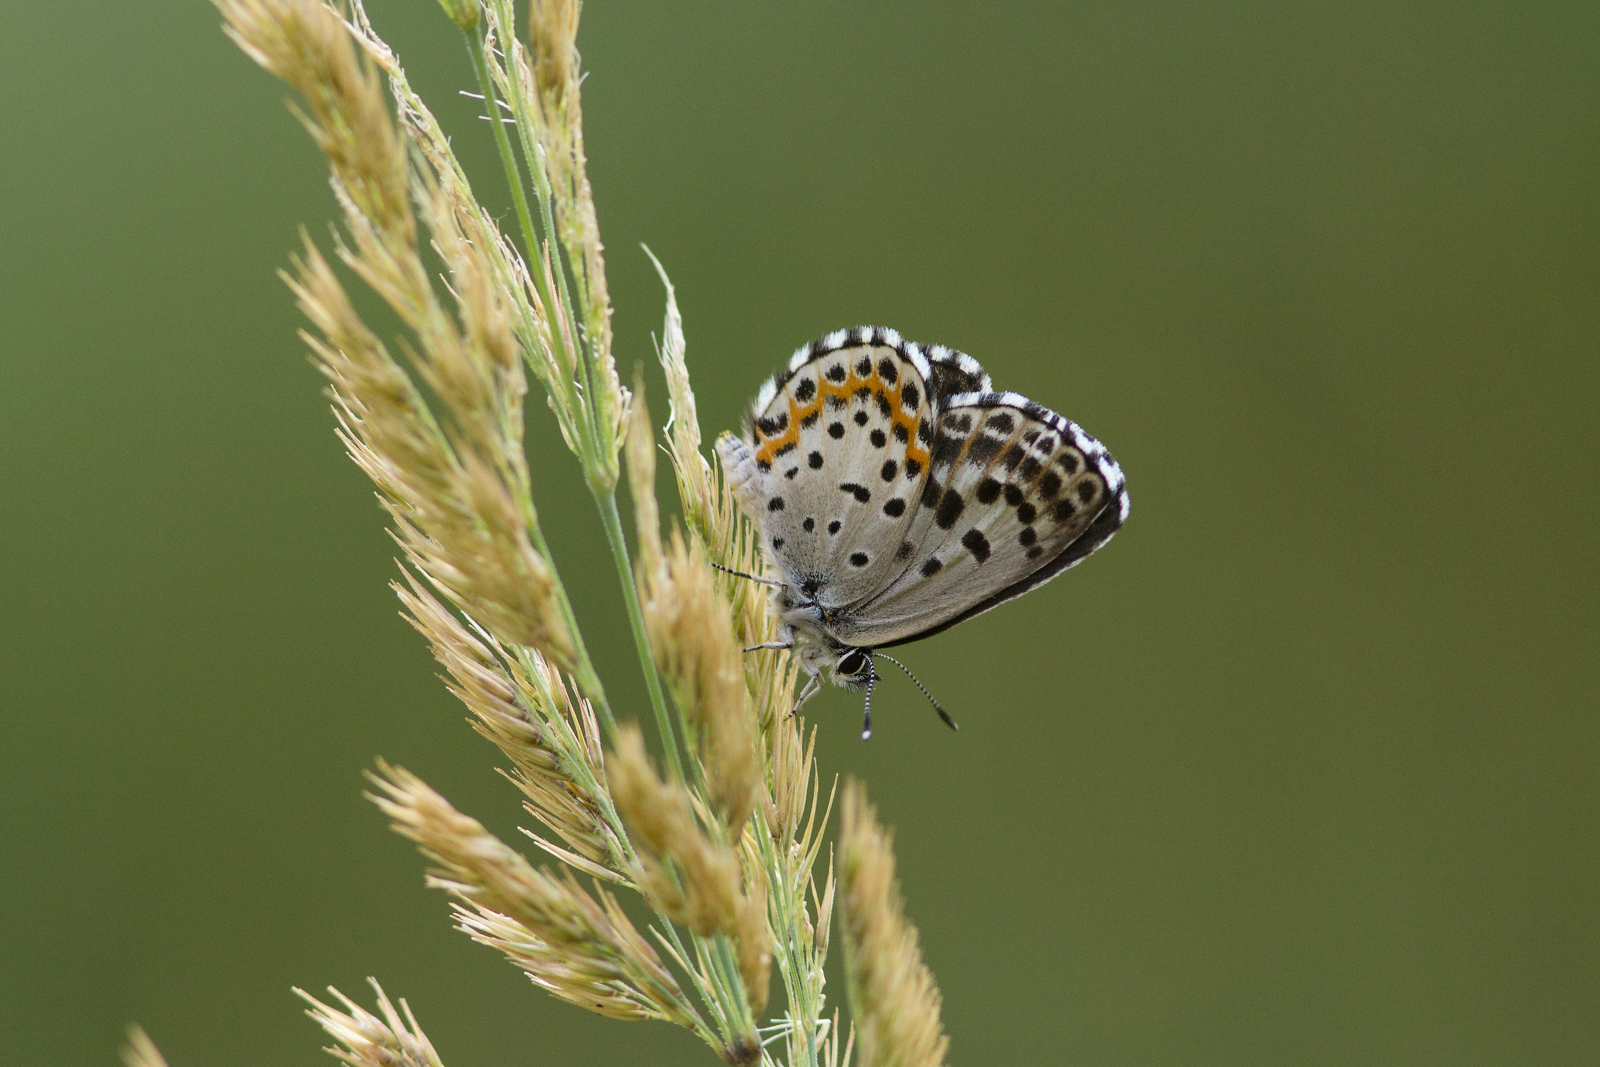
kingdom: Animalia
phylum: Arthropoda
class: Insecta
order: Lepidoptera
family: Lycaenidae
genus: Scolitantides
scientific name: Scolitantides orion
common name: Chequered blue
